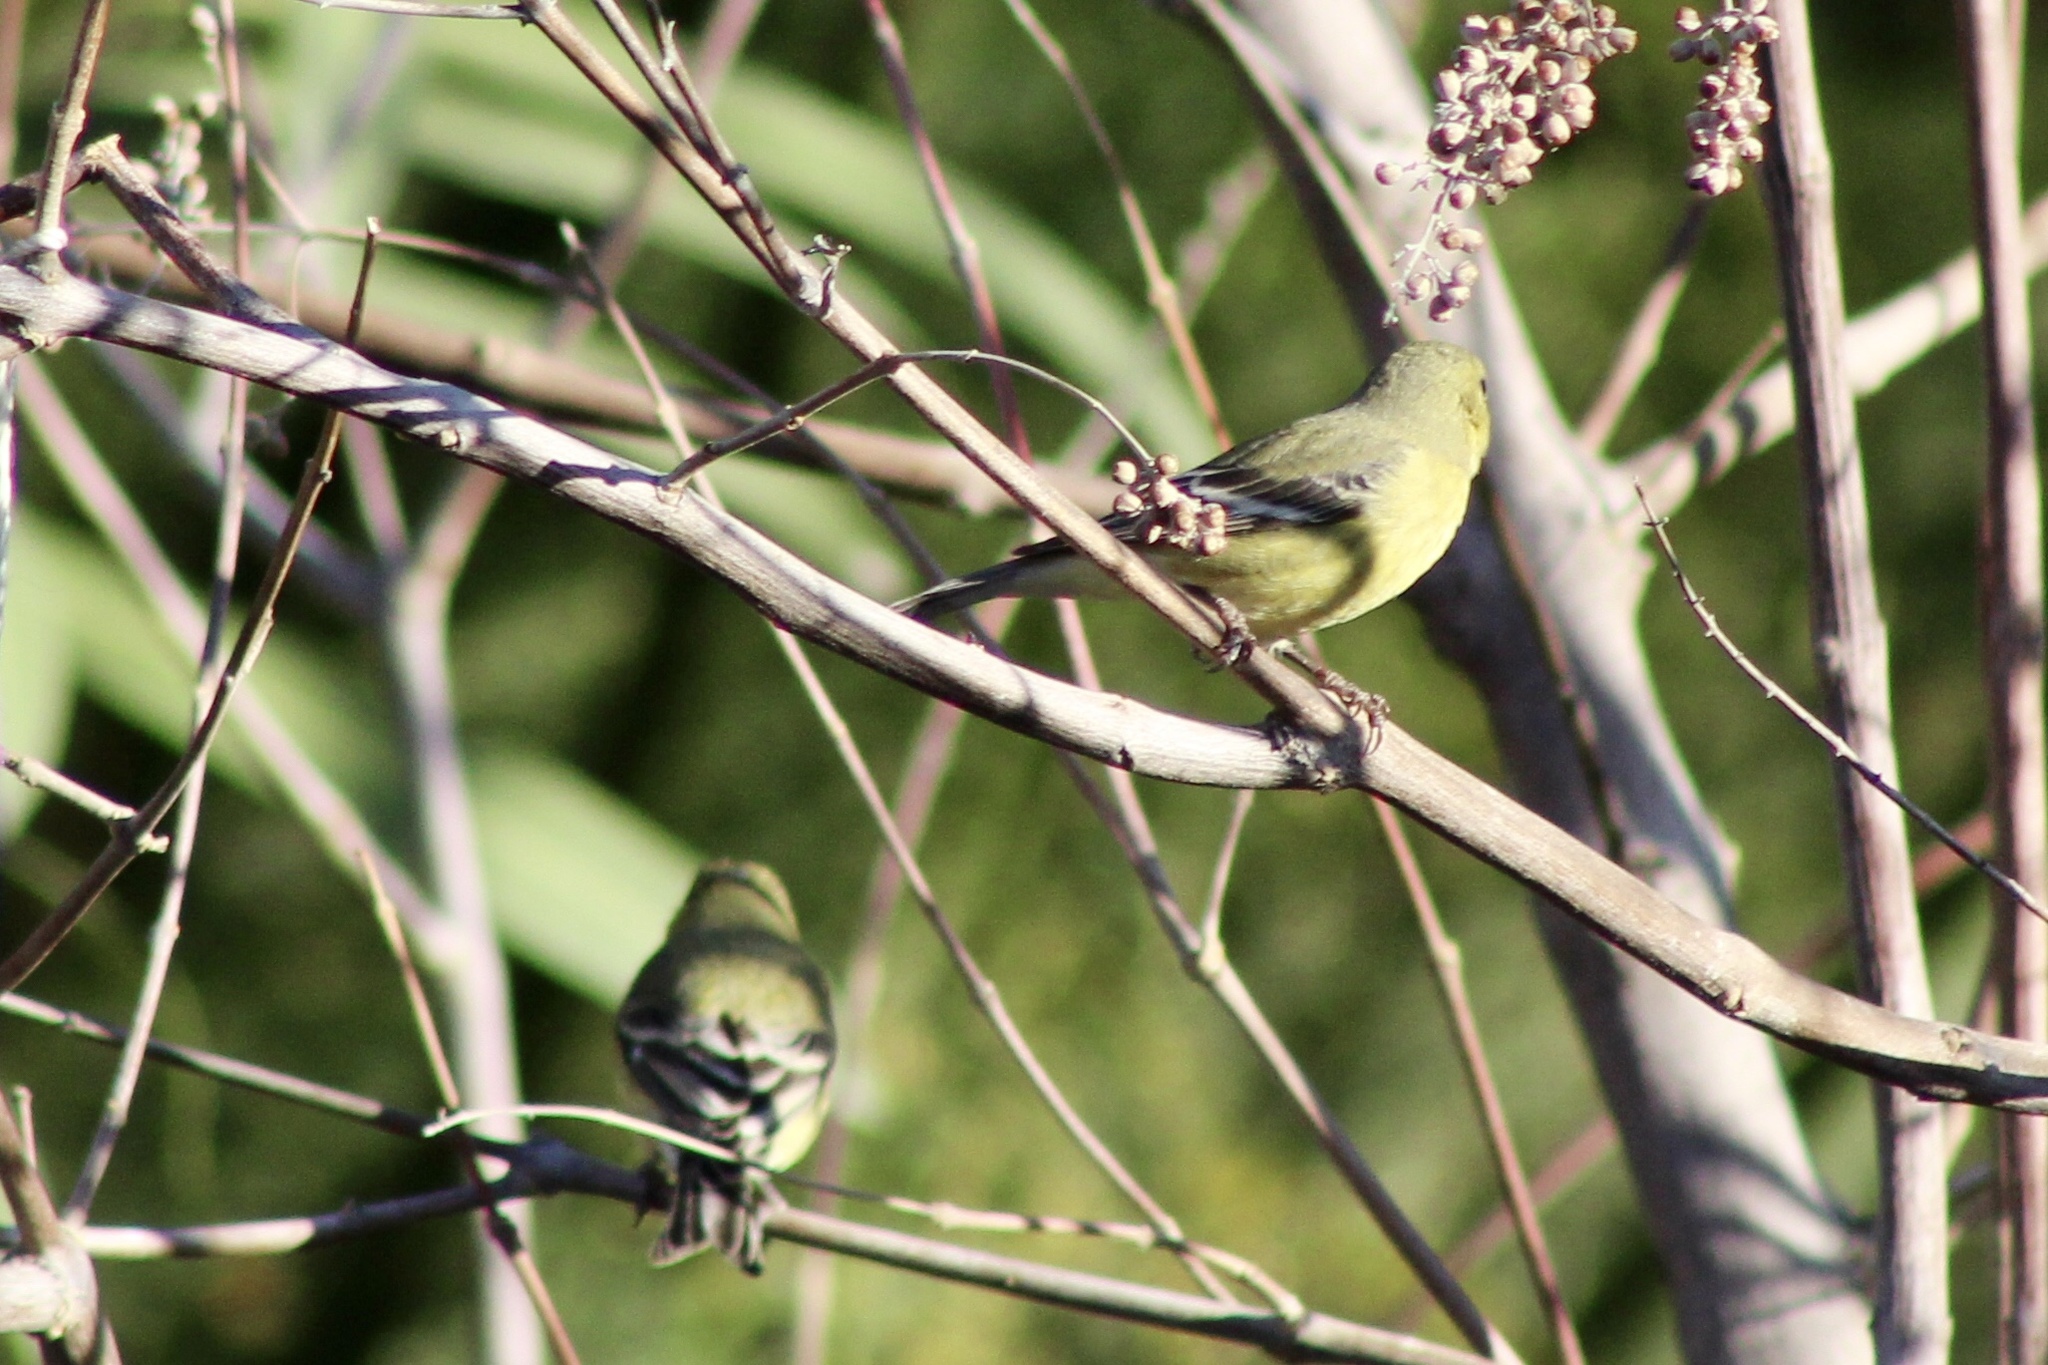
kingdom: Animalia
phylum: Chordata
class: Aves
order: Passeriformes
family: Fringillidae
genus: Spinus
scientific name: Spinus psaltria
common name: Lesser goldfinch
